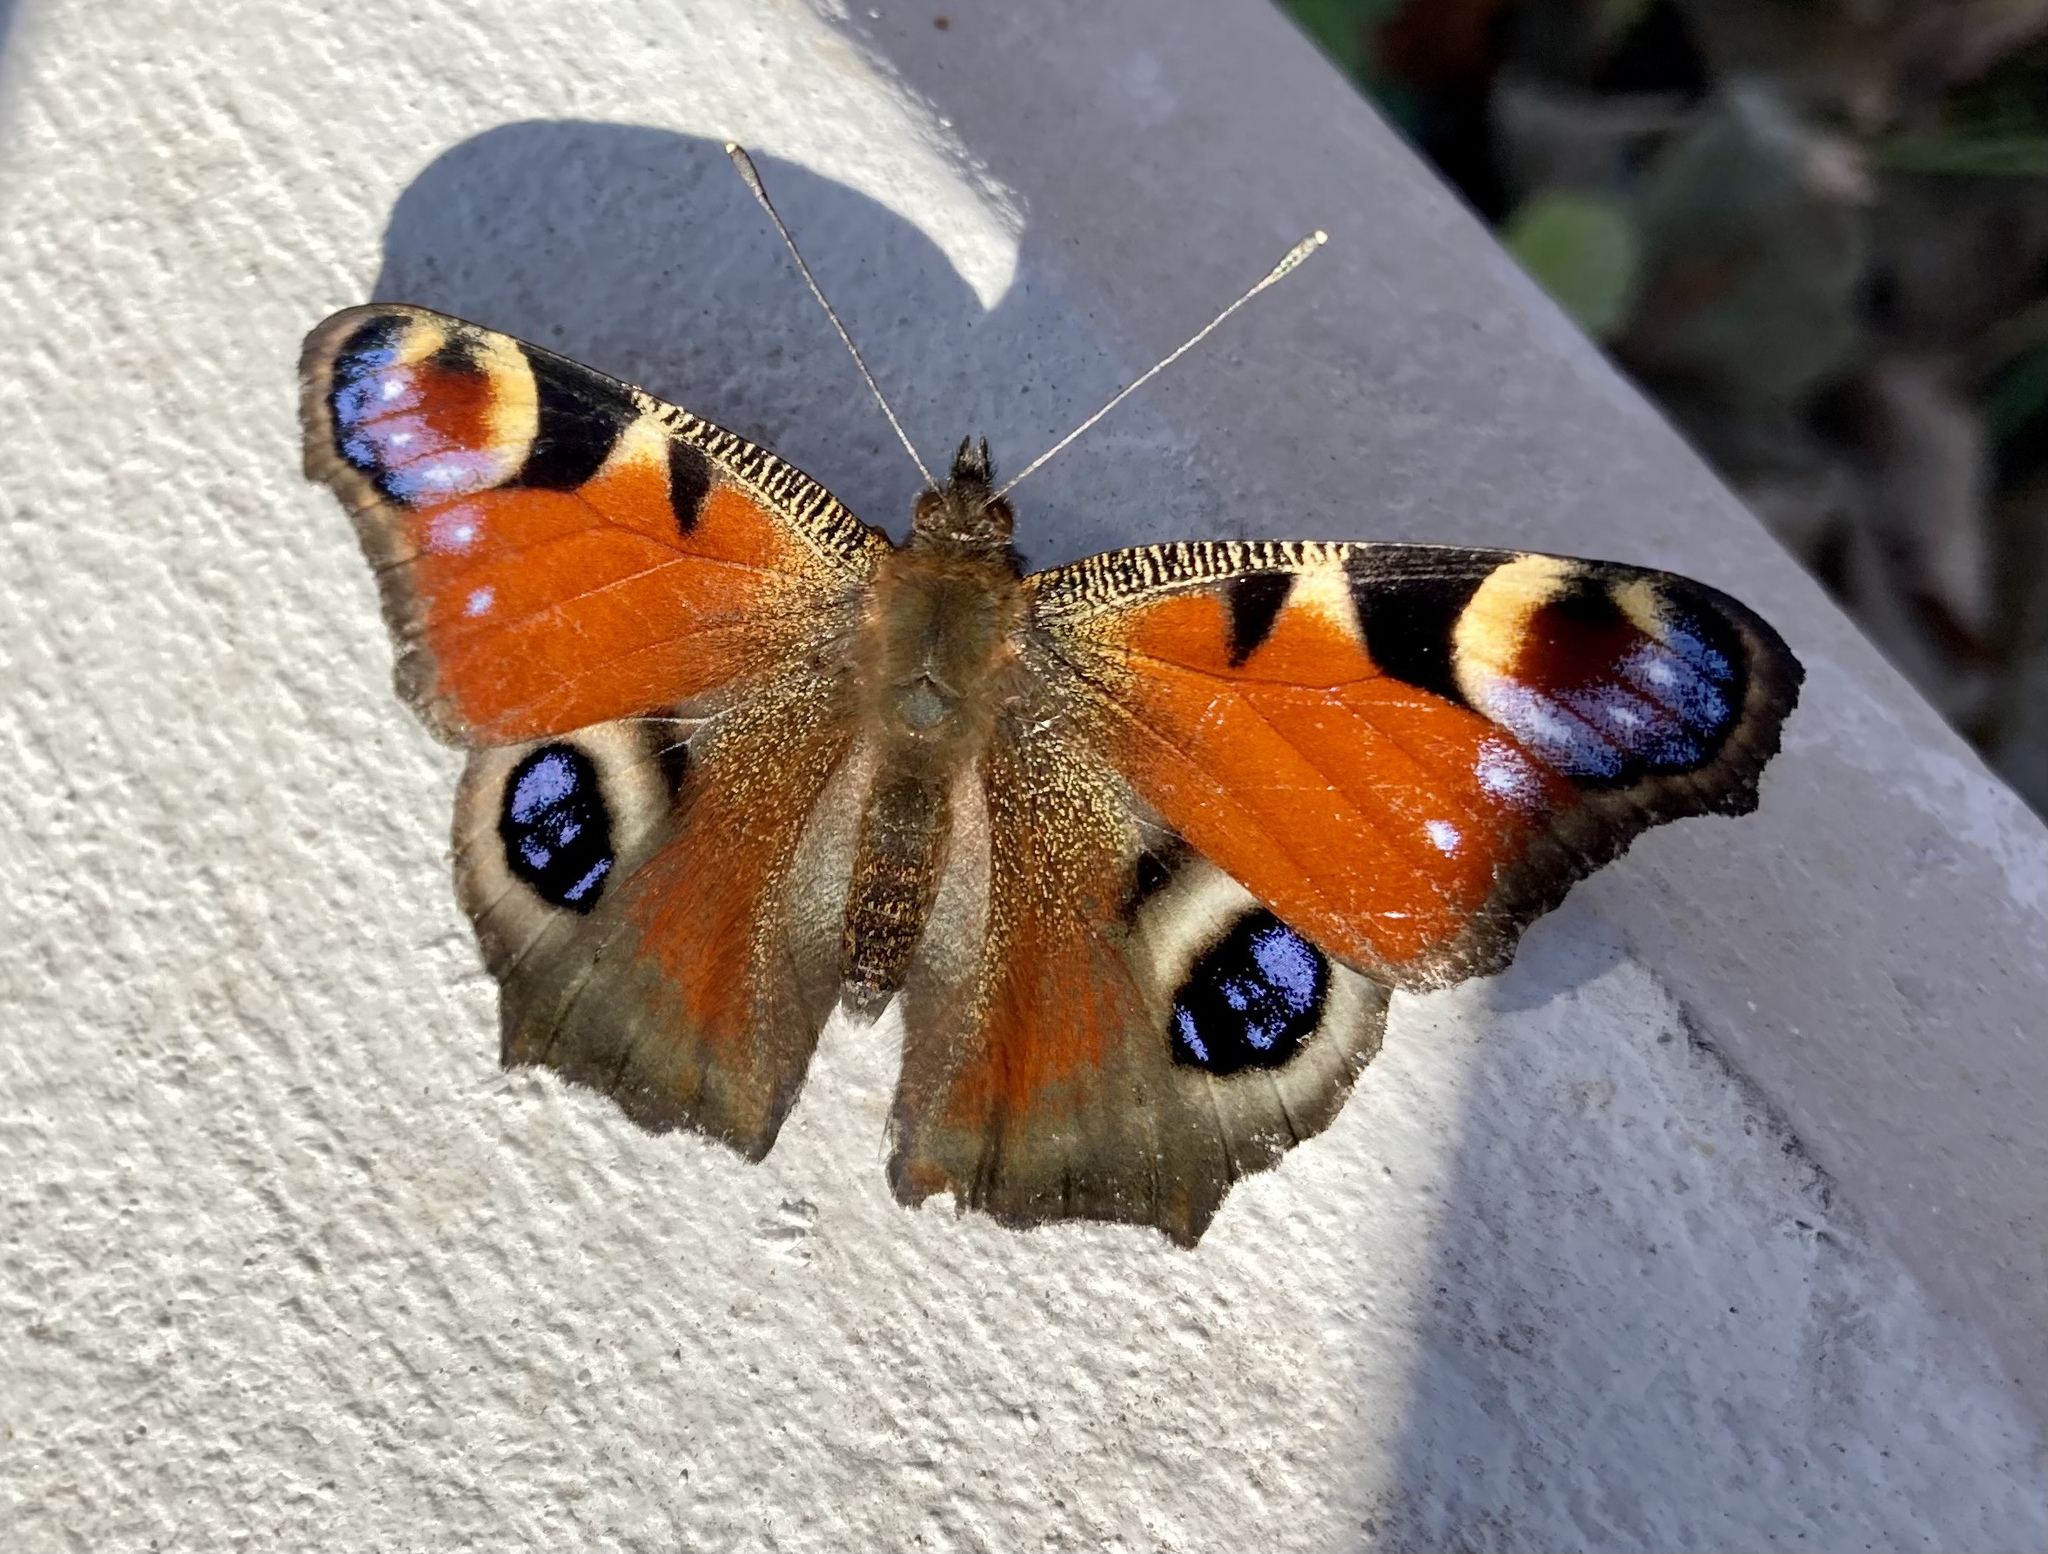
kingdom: Animalia
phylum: Arthropoda
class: Insecta
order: Lepidoptera
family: Nymphalidae
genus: Aglais
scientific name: Aglais io
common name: Peacock
